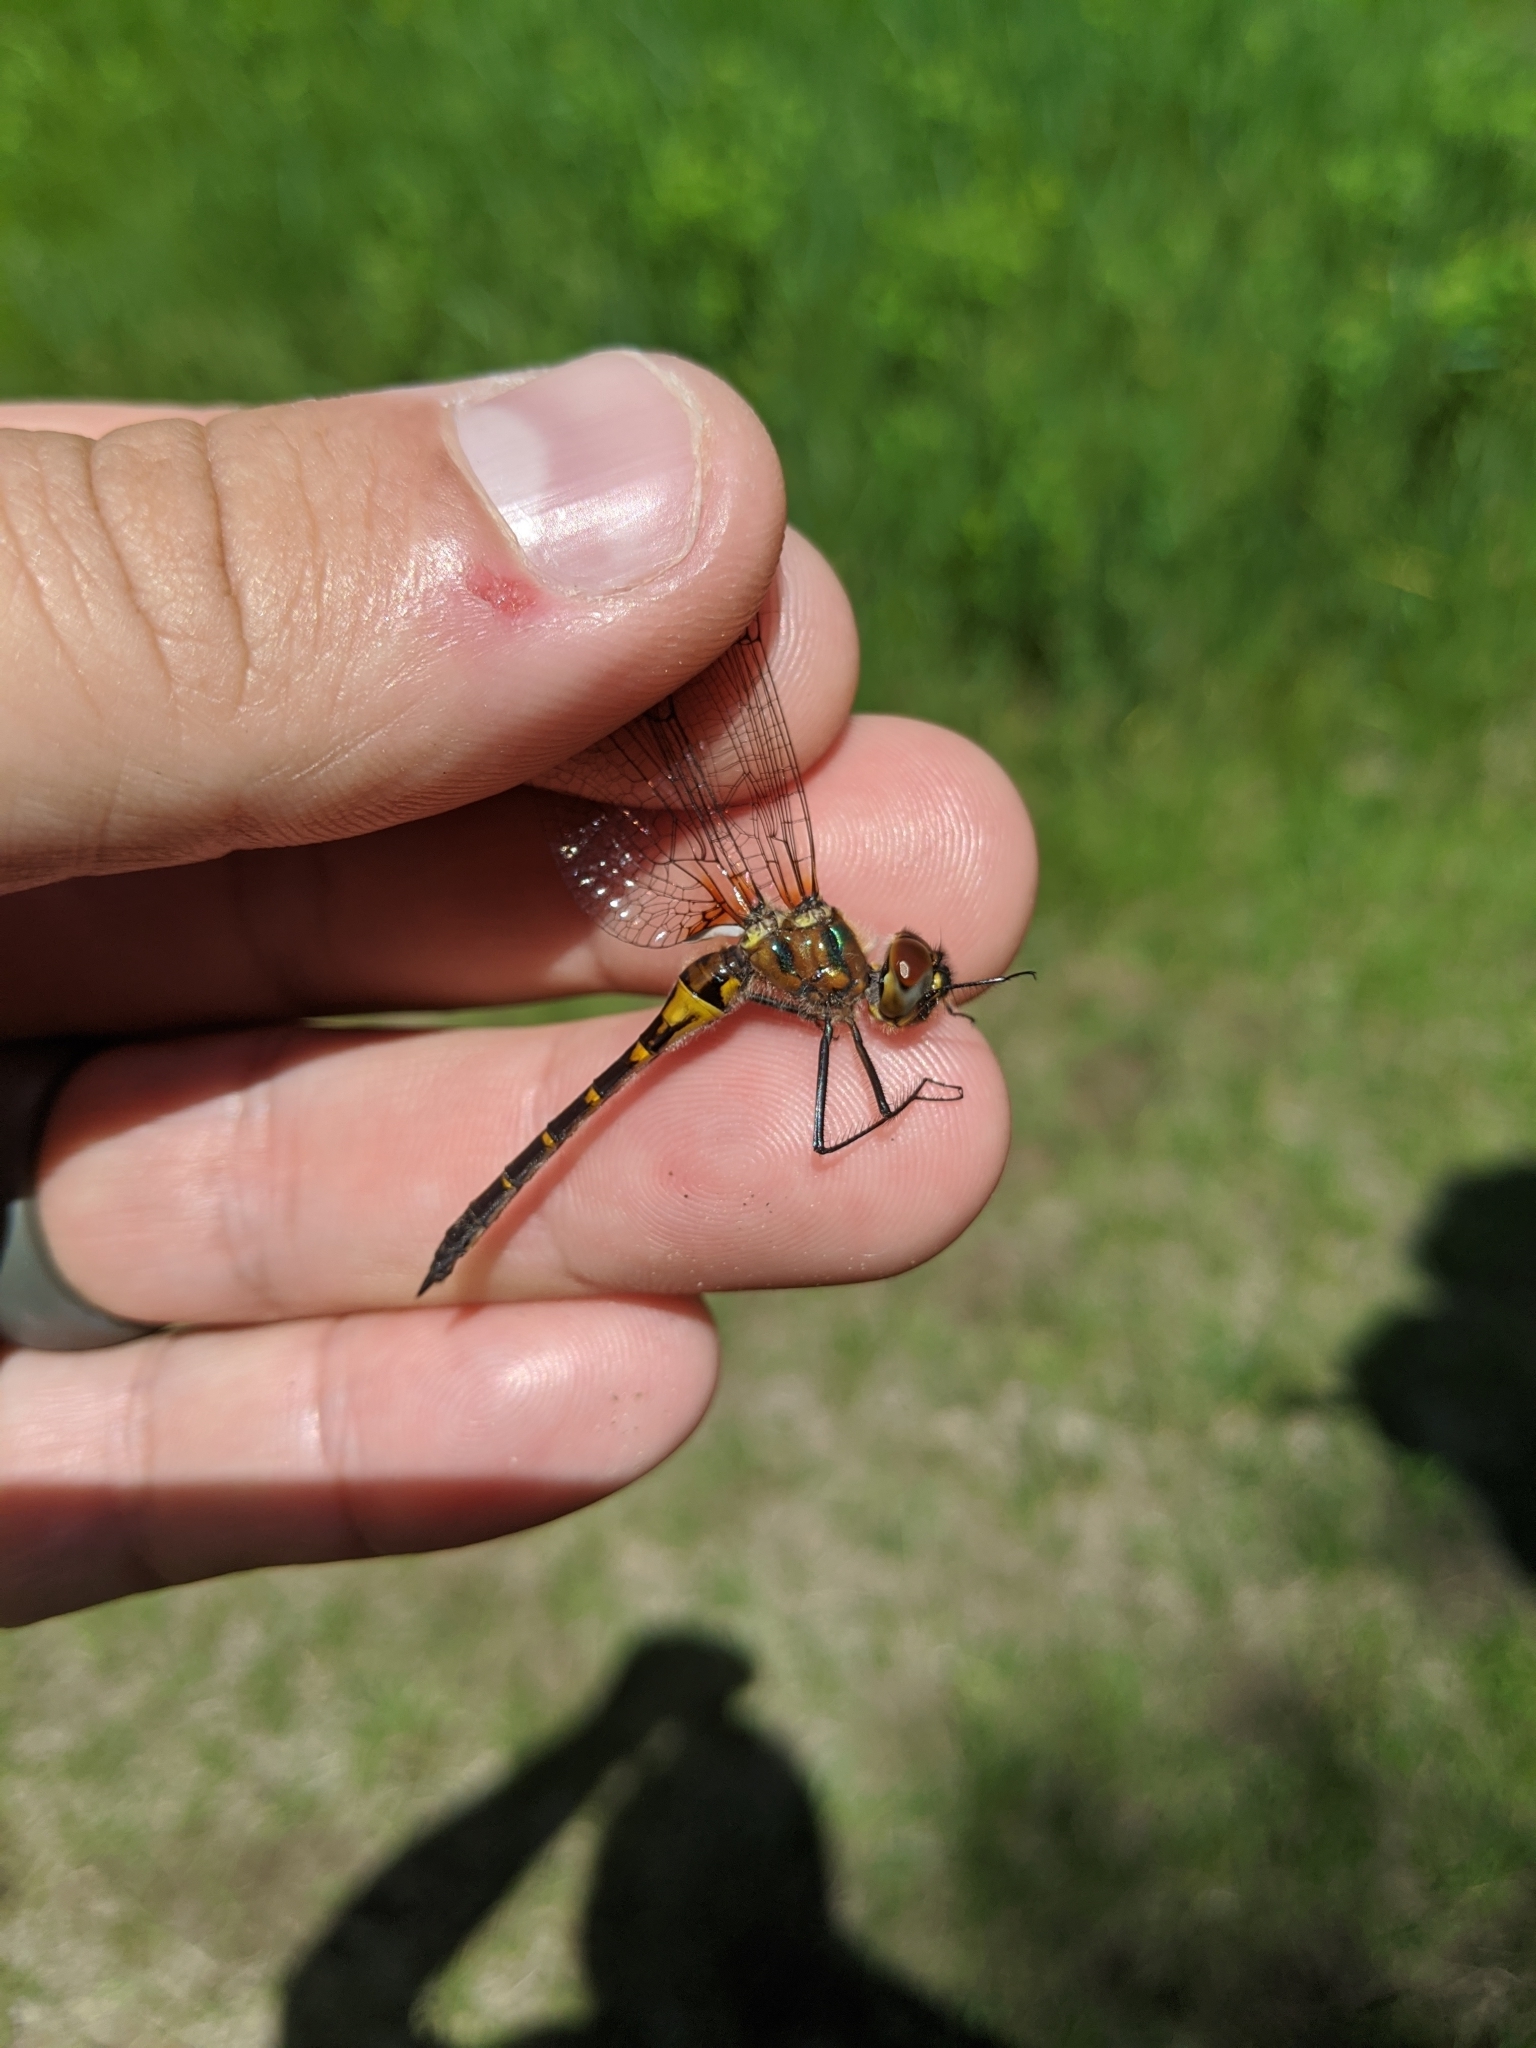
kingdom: Animalia
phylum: Arthropoda
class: Insecta
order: Odonata
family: Corduliidae
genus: Dorocordulia
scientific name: Dorocordulia lepida
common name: Petite emerald
